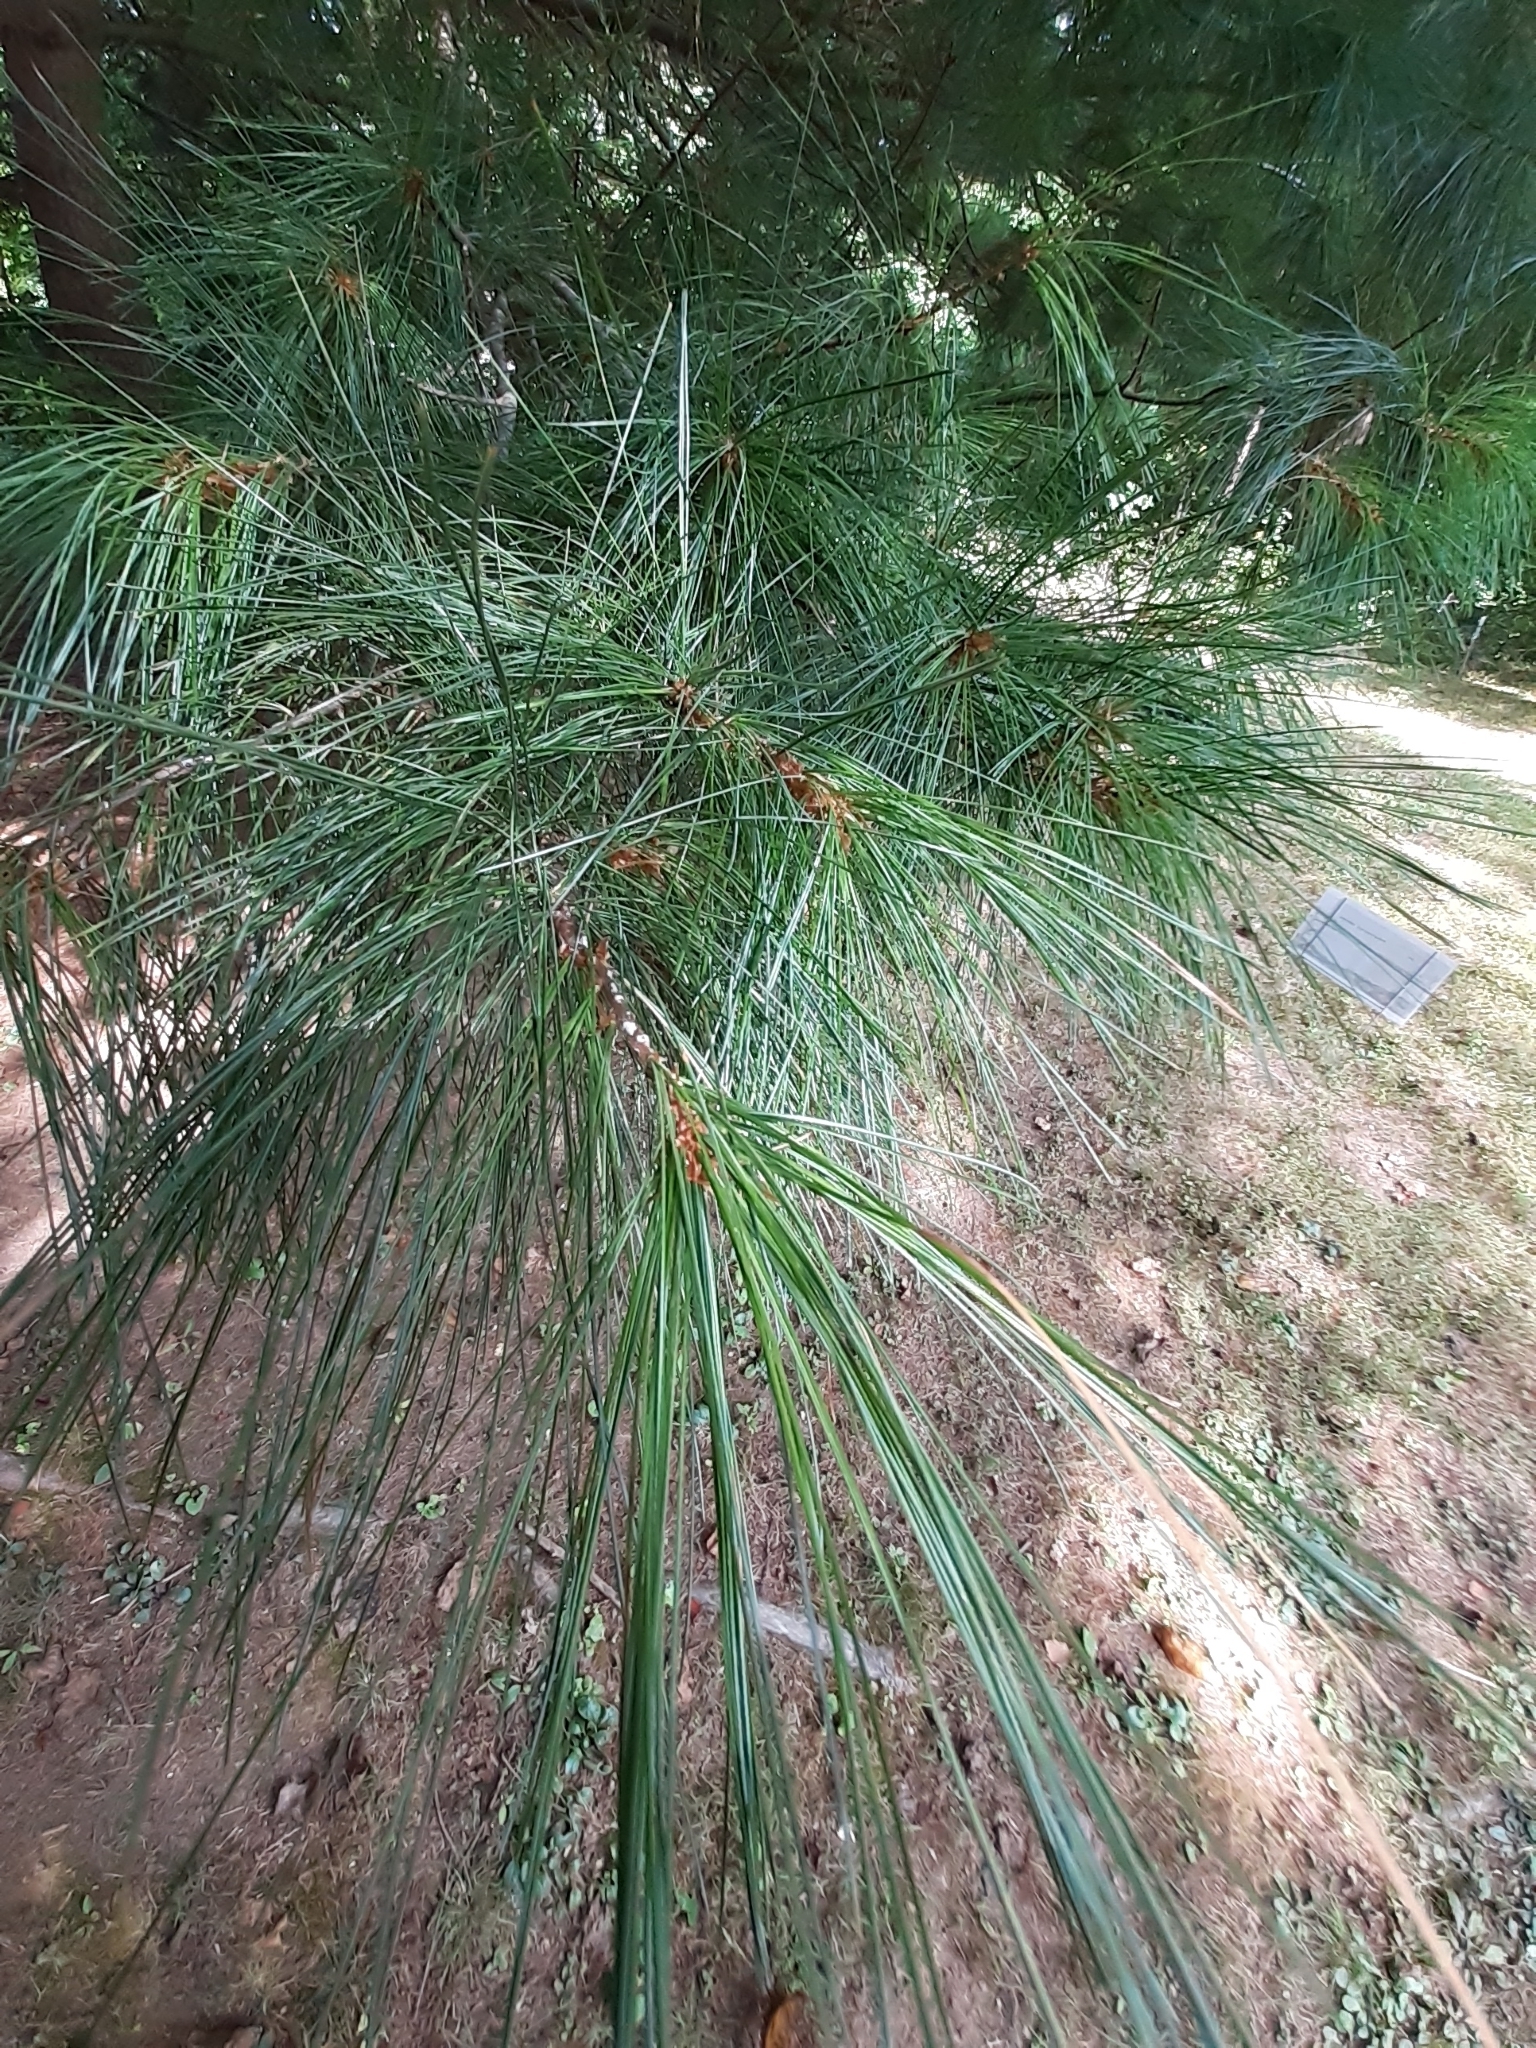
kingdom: Plantae
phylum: Tracheophyta
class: Pinopsida
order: Pinales
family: Pinaceae
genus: Pinus
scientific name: Pinus strobus
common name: Weymouth pine
